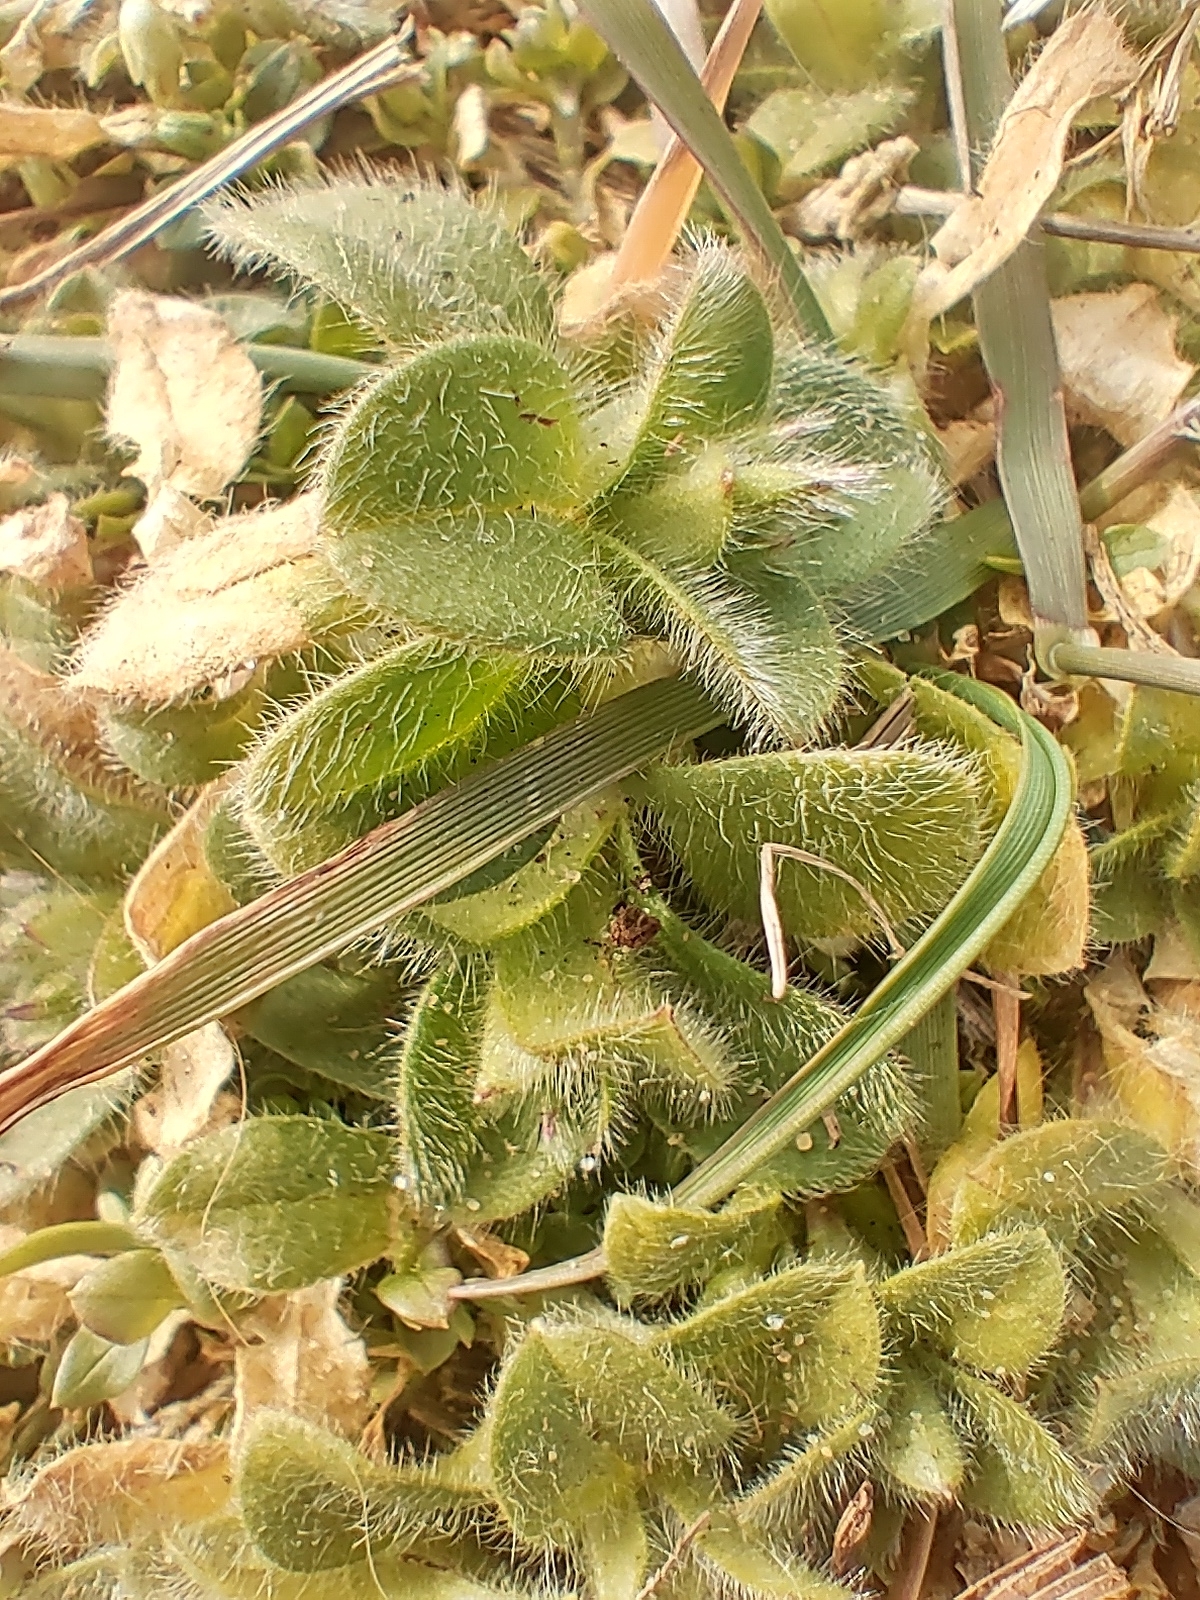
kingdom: Plantae
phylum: Tracheophyta
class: Magnoliopsida
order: Caryophyllales
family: Caryophyllaceae
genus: Cerastium
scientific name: Cerastium fontanum
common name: Common mouse-ear
